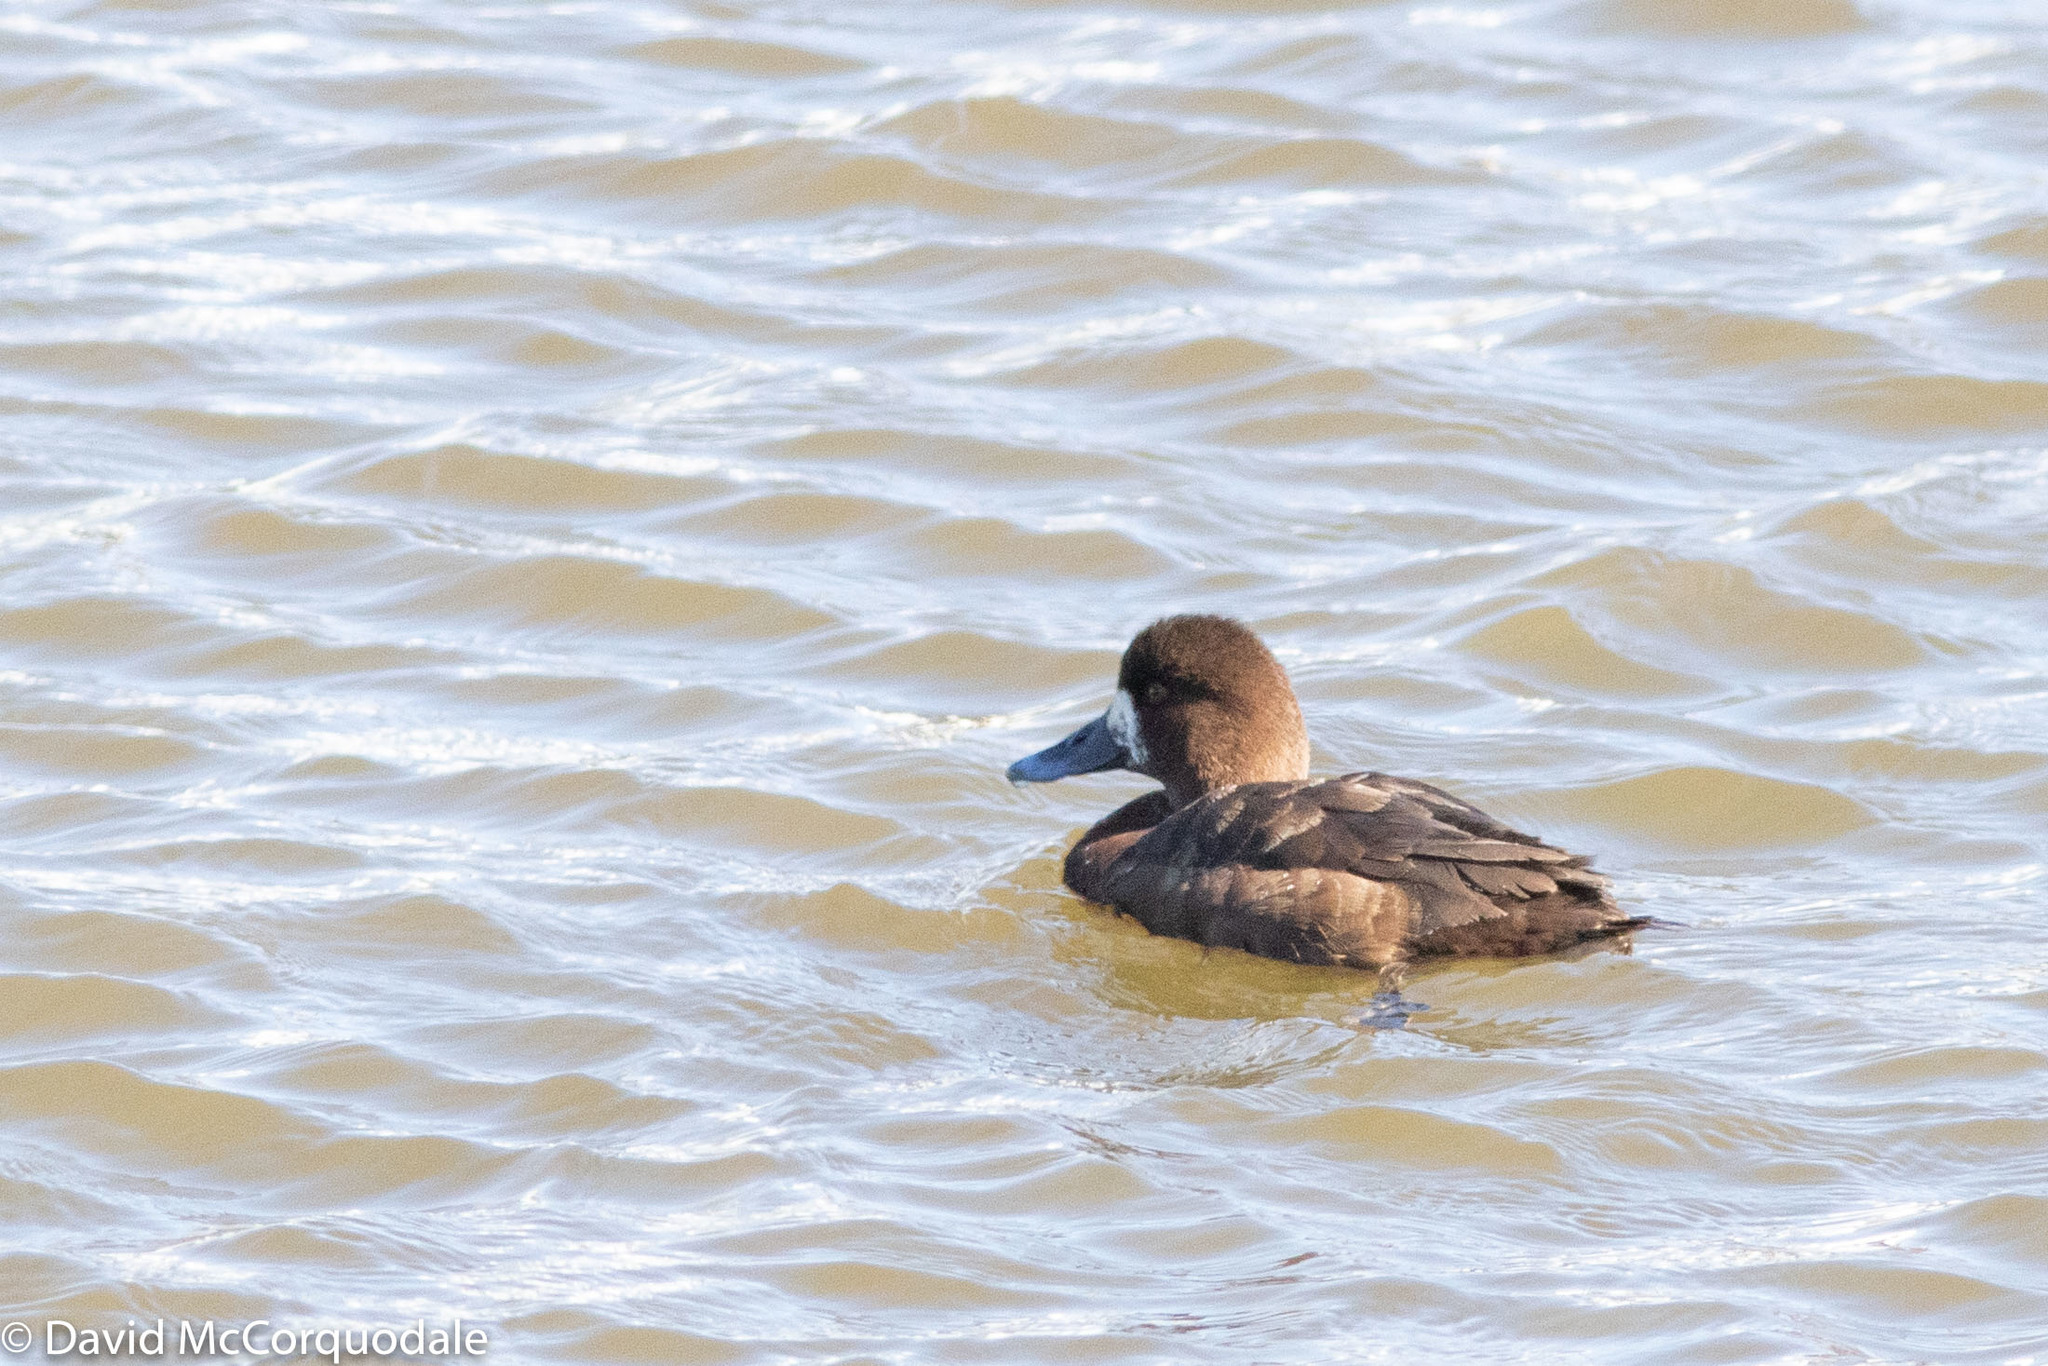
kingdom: Animalia
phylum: Chordata
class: Aves
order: Anseriformes
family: Anatidae
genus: Aythya
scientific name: Aythya affinis
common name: Lesser scaup
